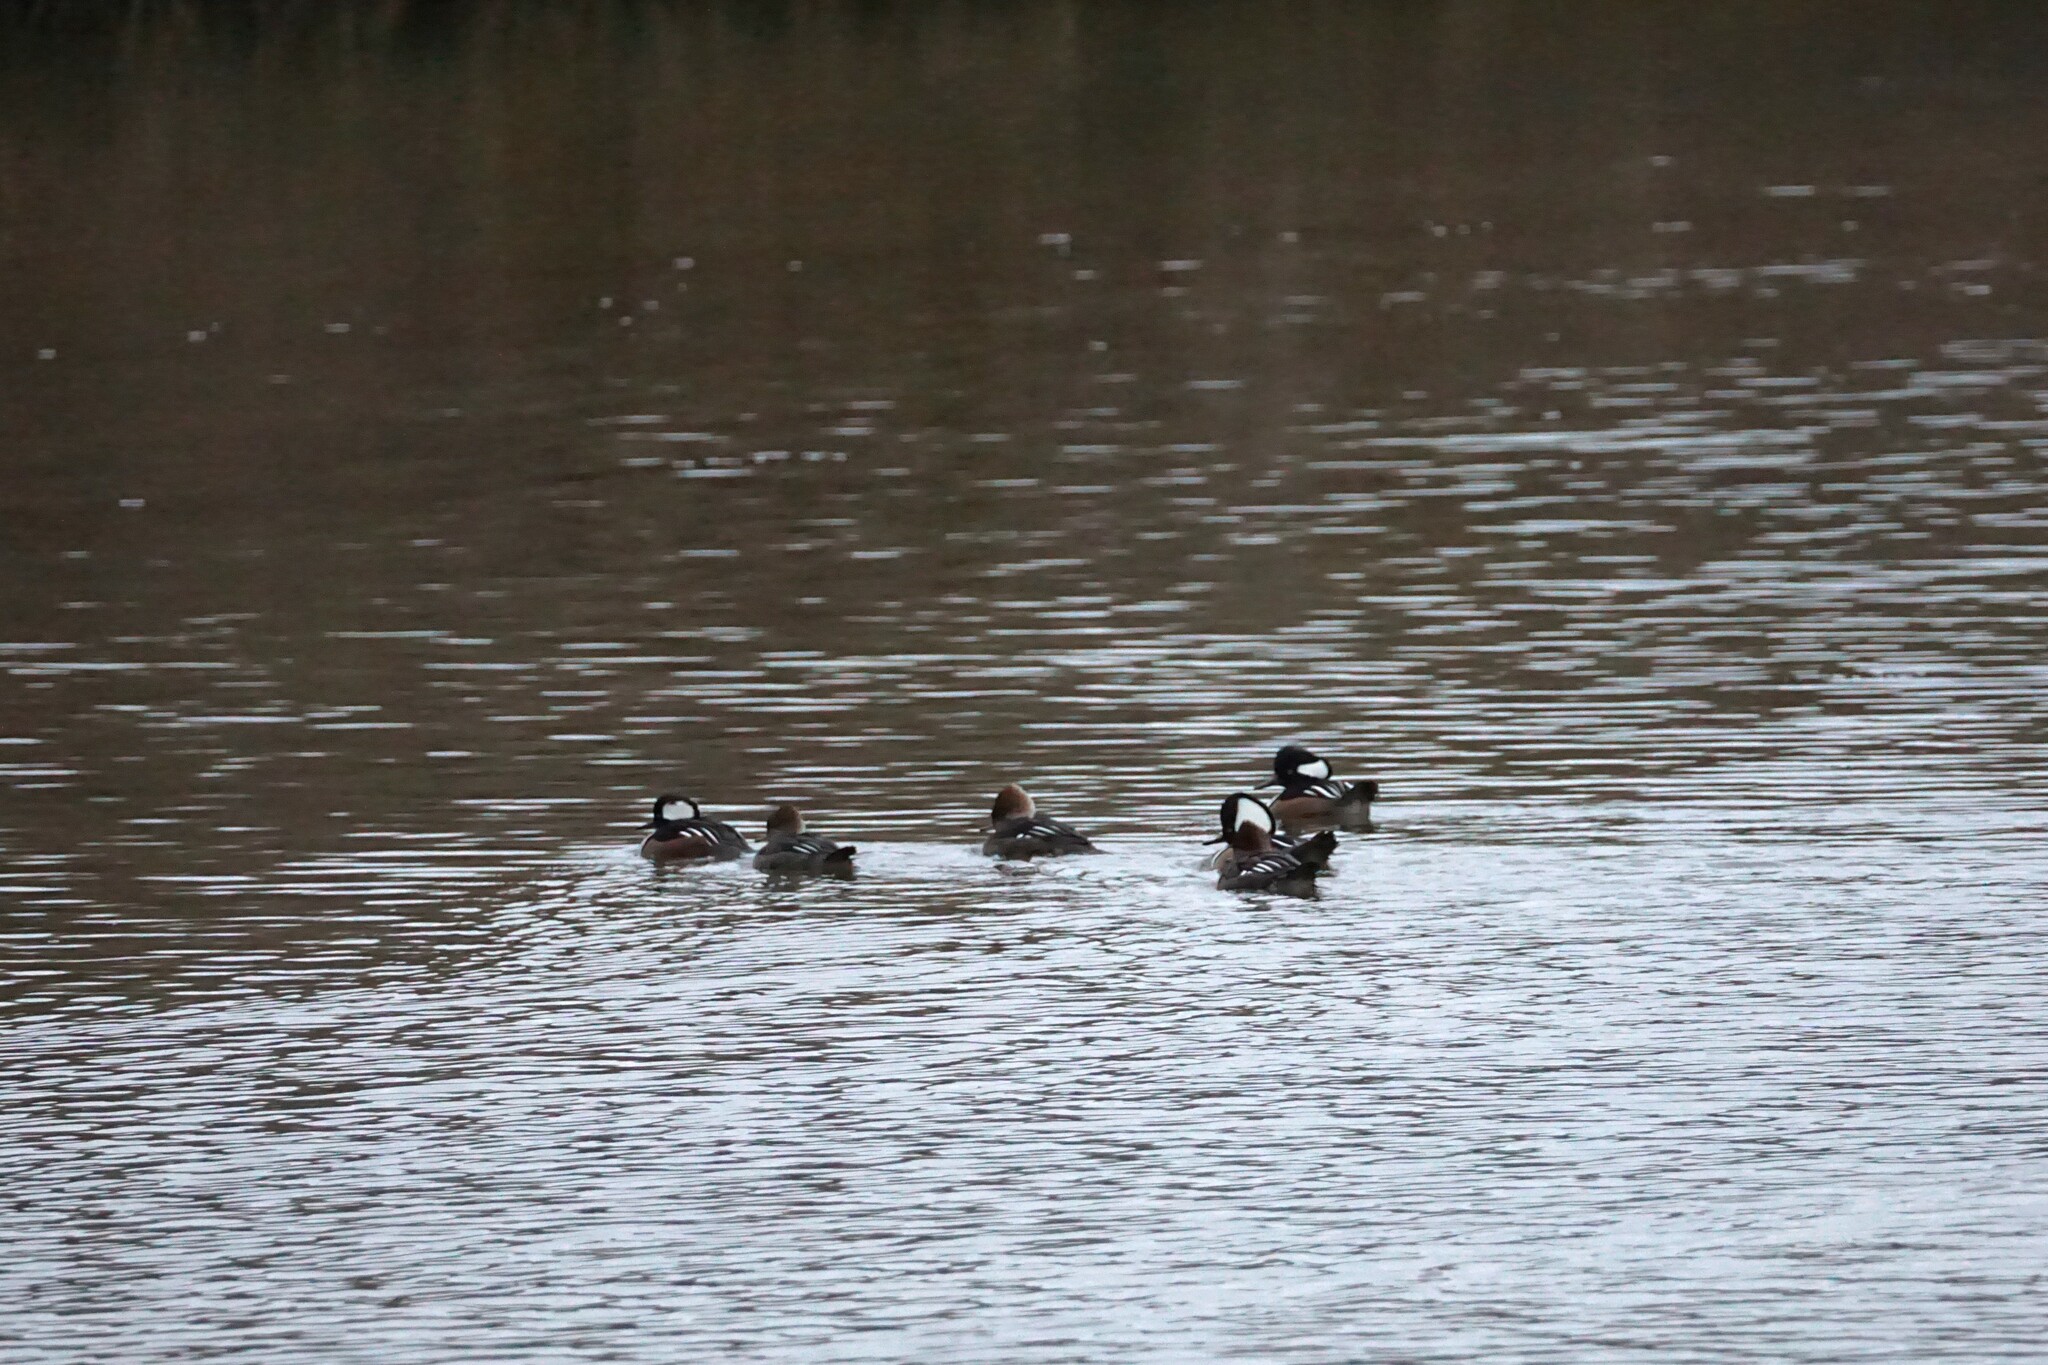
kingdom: Animalia
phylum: Chordata
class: Aves
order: Anseriformes
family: Anatidae
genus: Lophodytes
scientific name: Lophodytes cucullatus
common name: Hooded merganser
